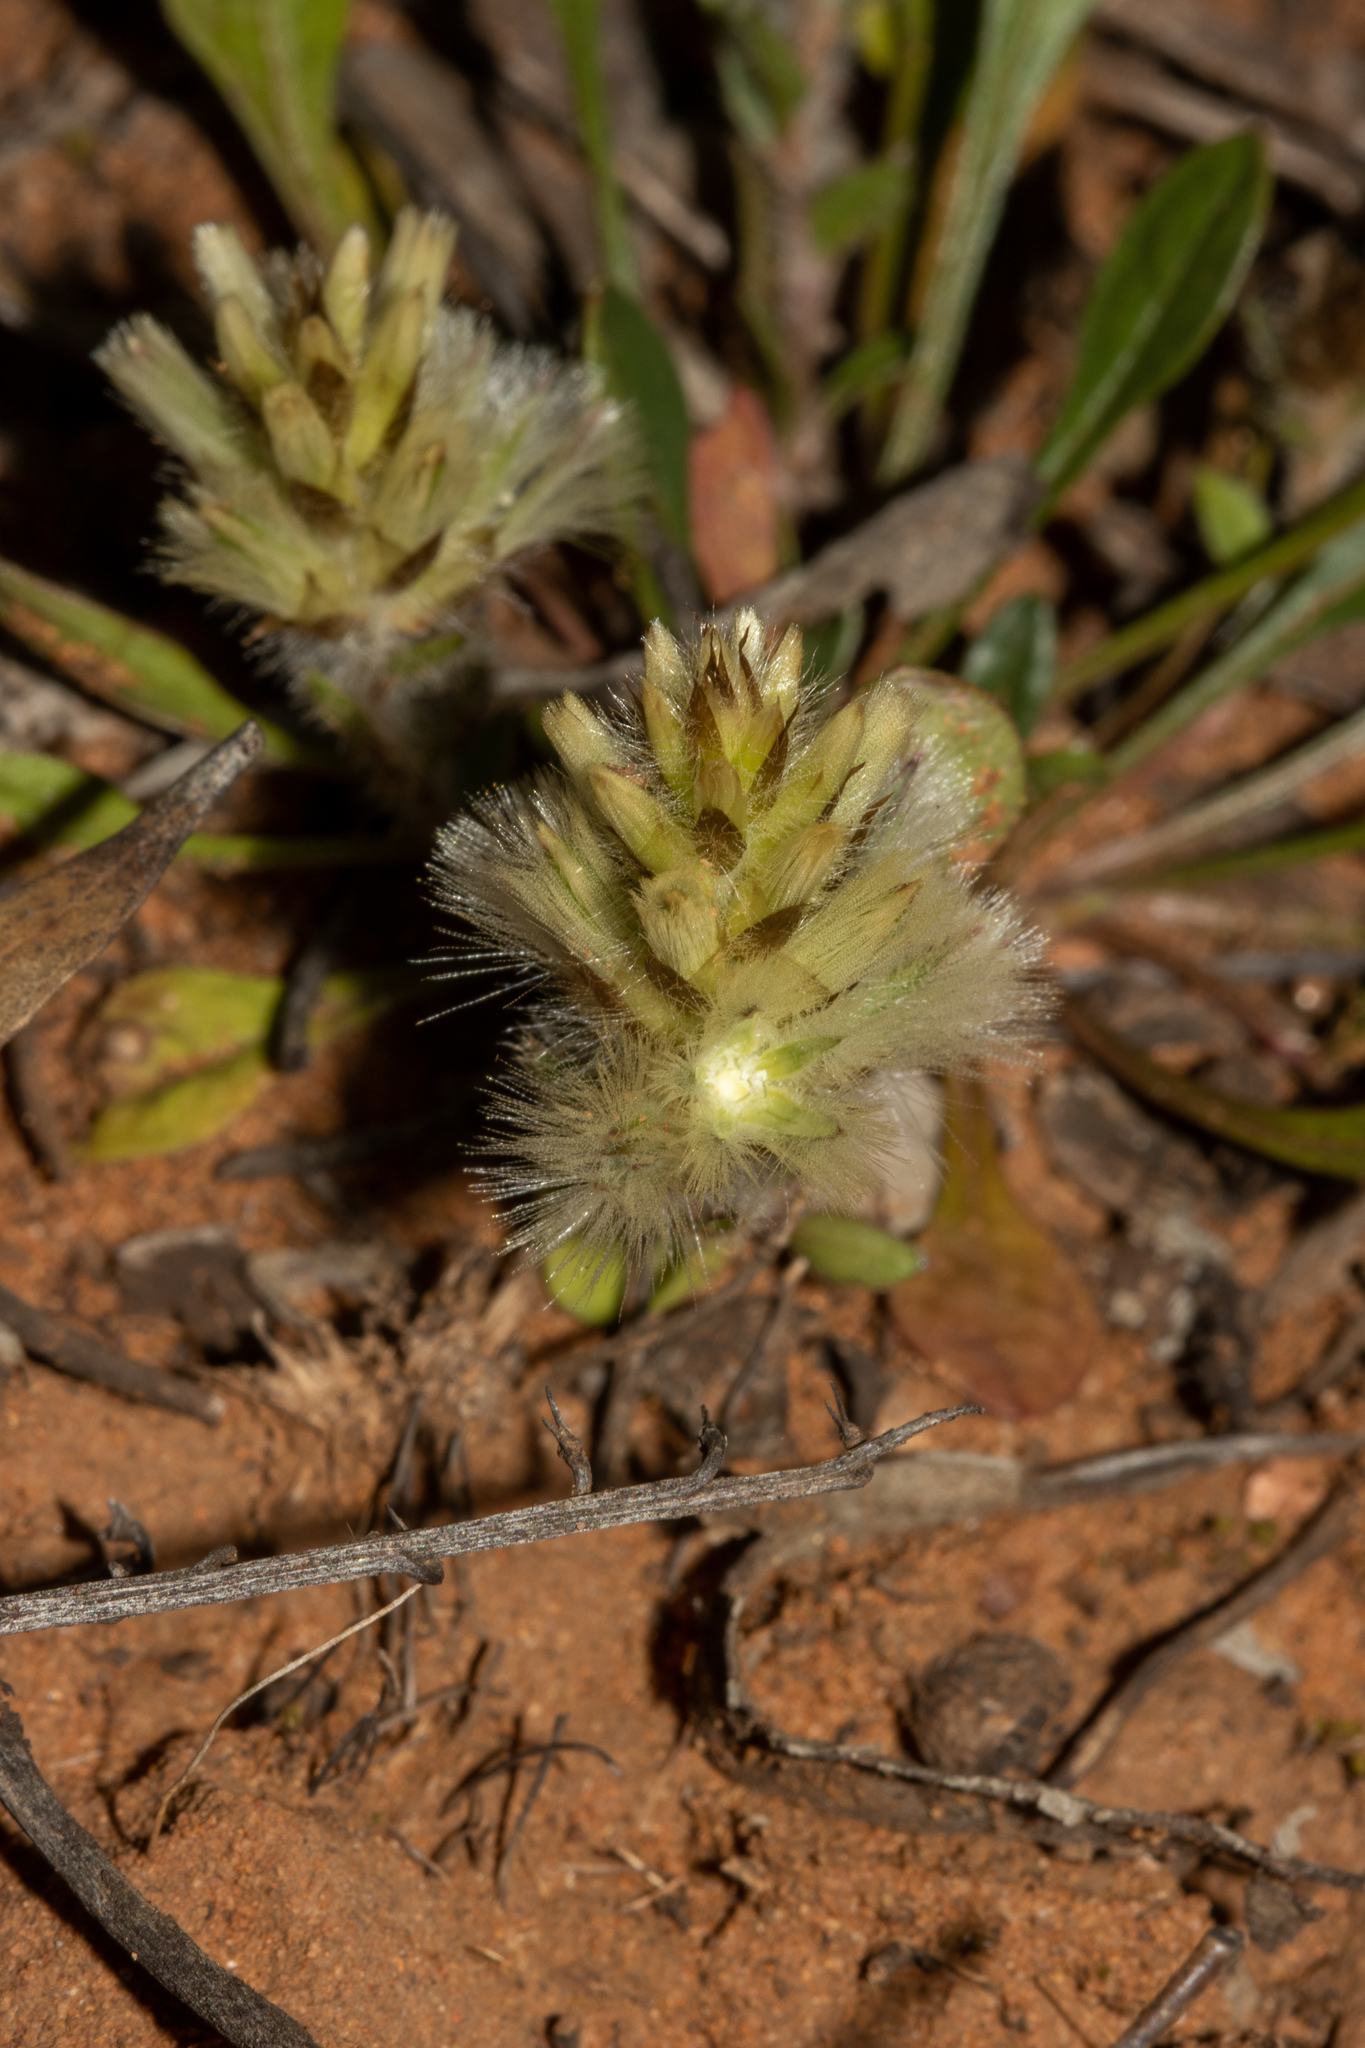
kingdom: Plantae
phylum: Tracheophyta
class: Magnoliopsida
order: Caryophyllales
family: Amaranthaceae
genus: Ptilotus
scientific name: Ptilotus spathulatus
